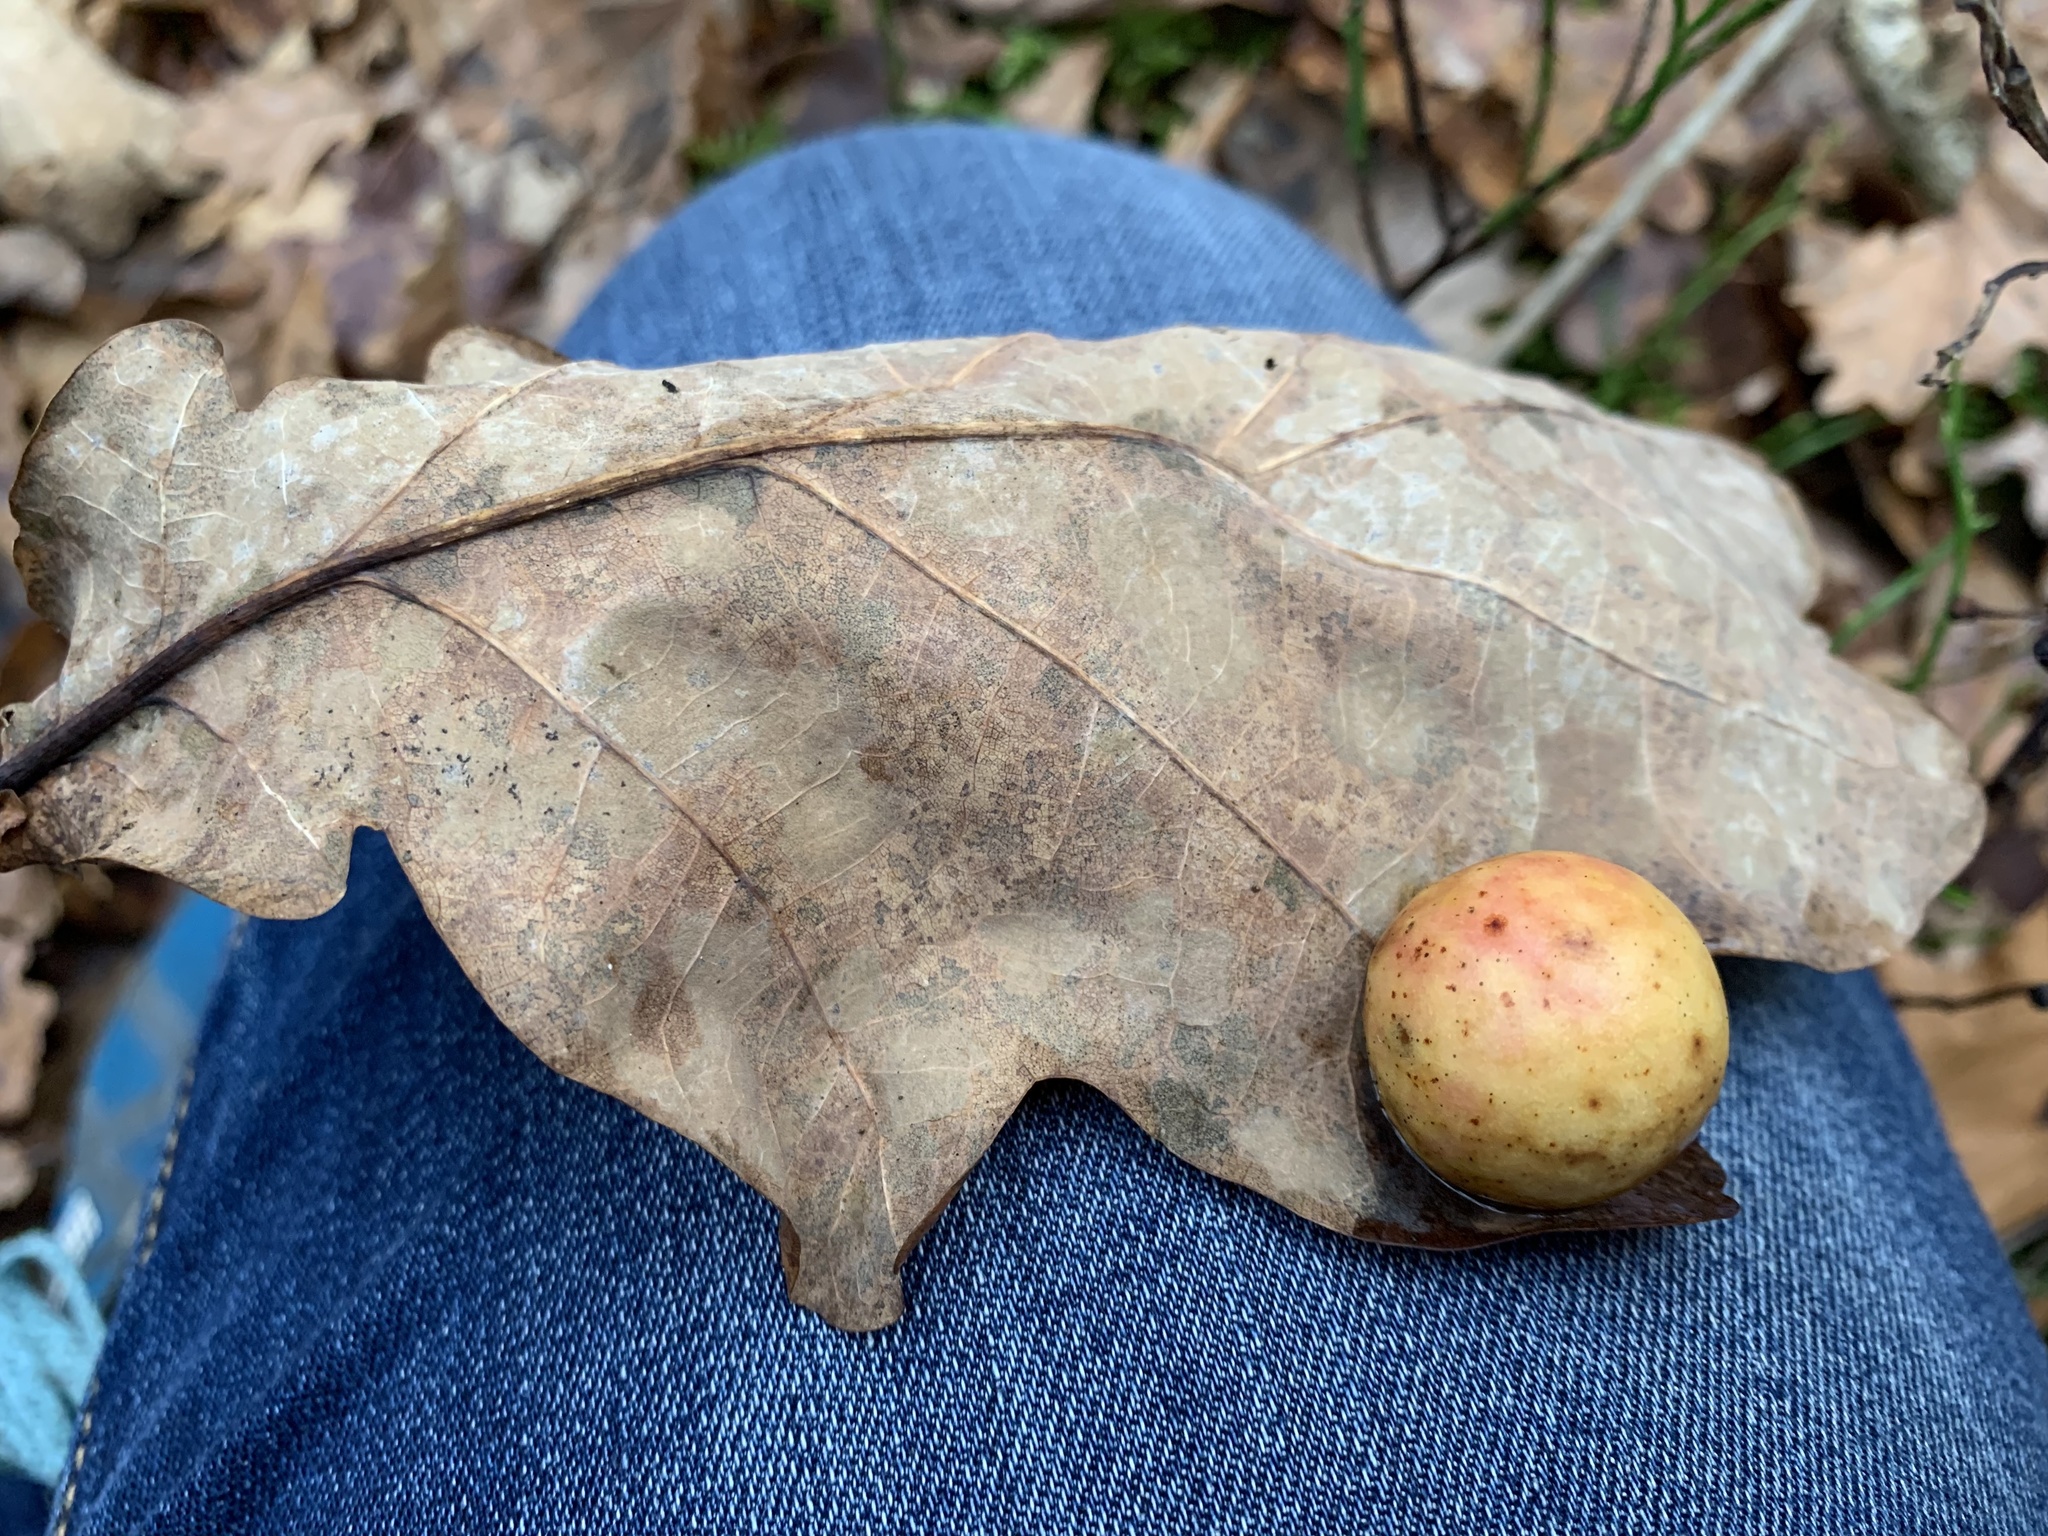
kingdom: Animalia
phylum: Arthropoda
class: Insecta
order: Hymenoptera
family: Cynipidae
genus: Cynips
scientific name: Cynips quercusfolii
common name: Cherry gall
